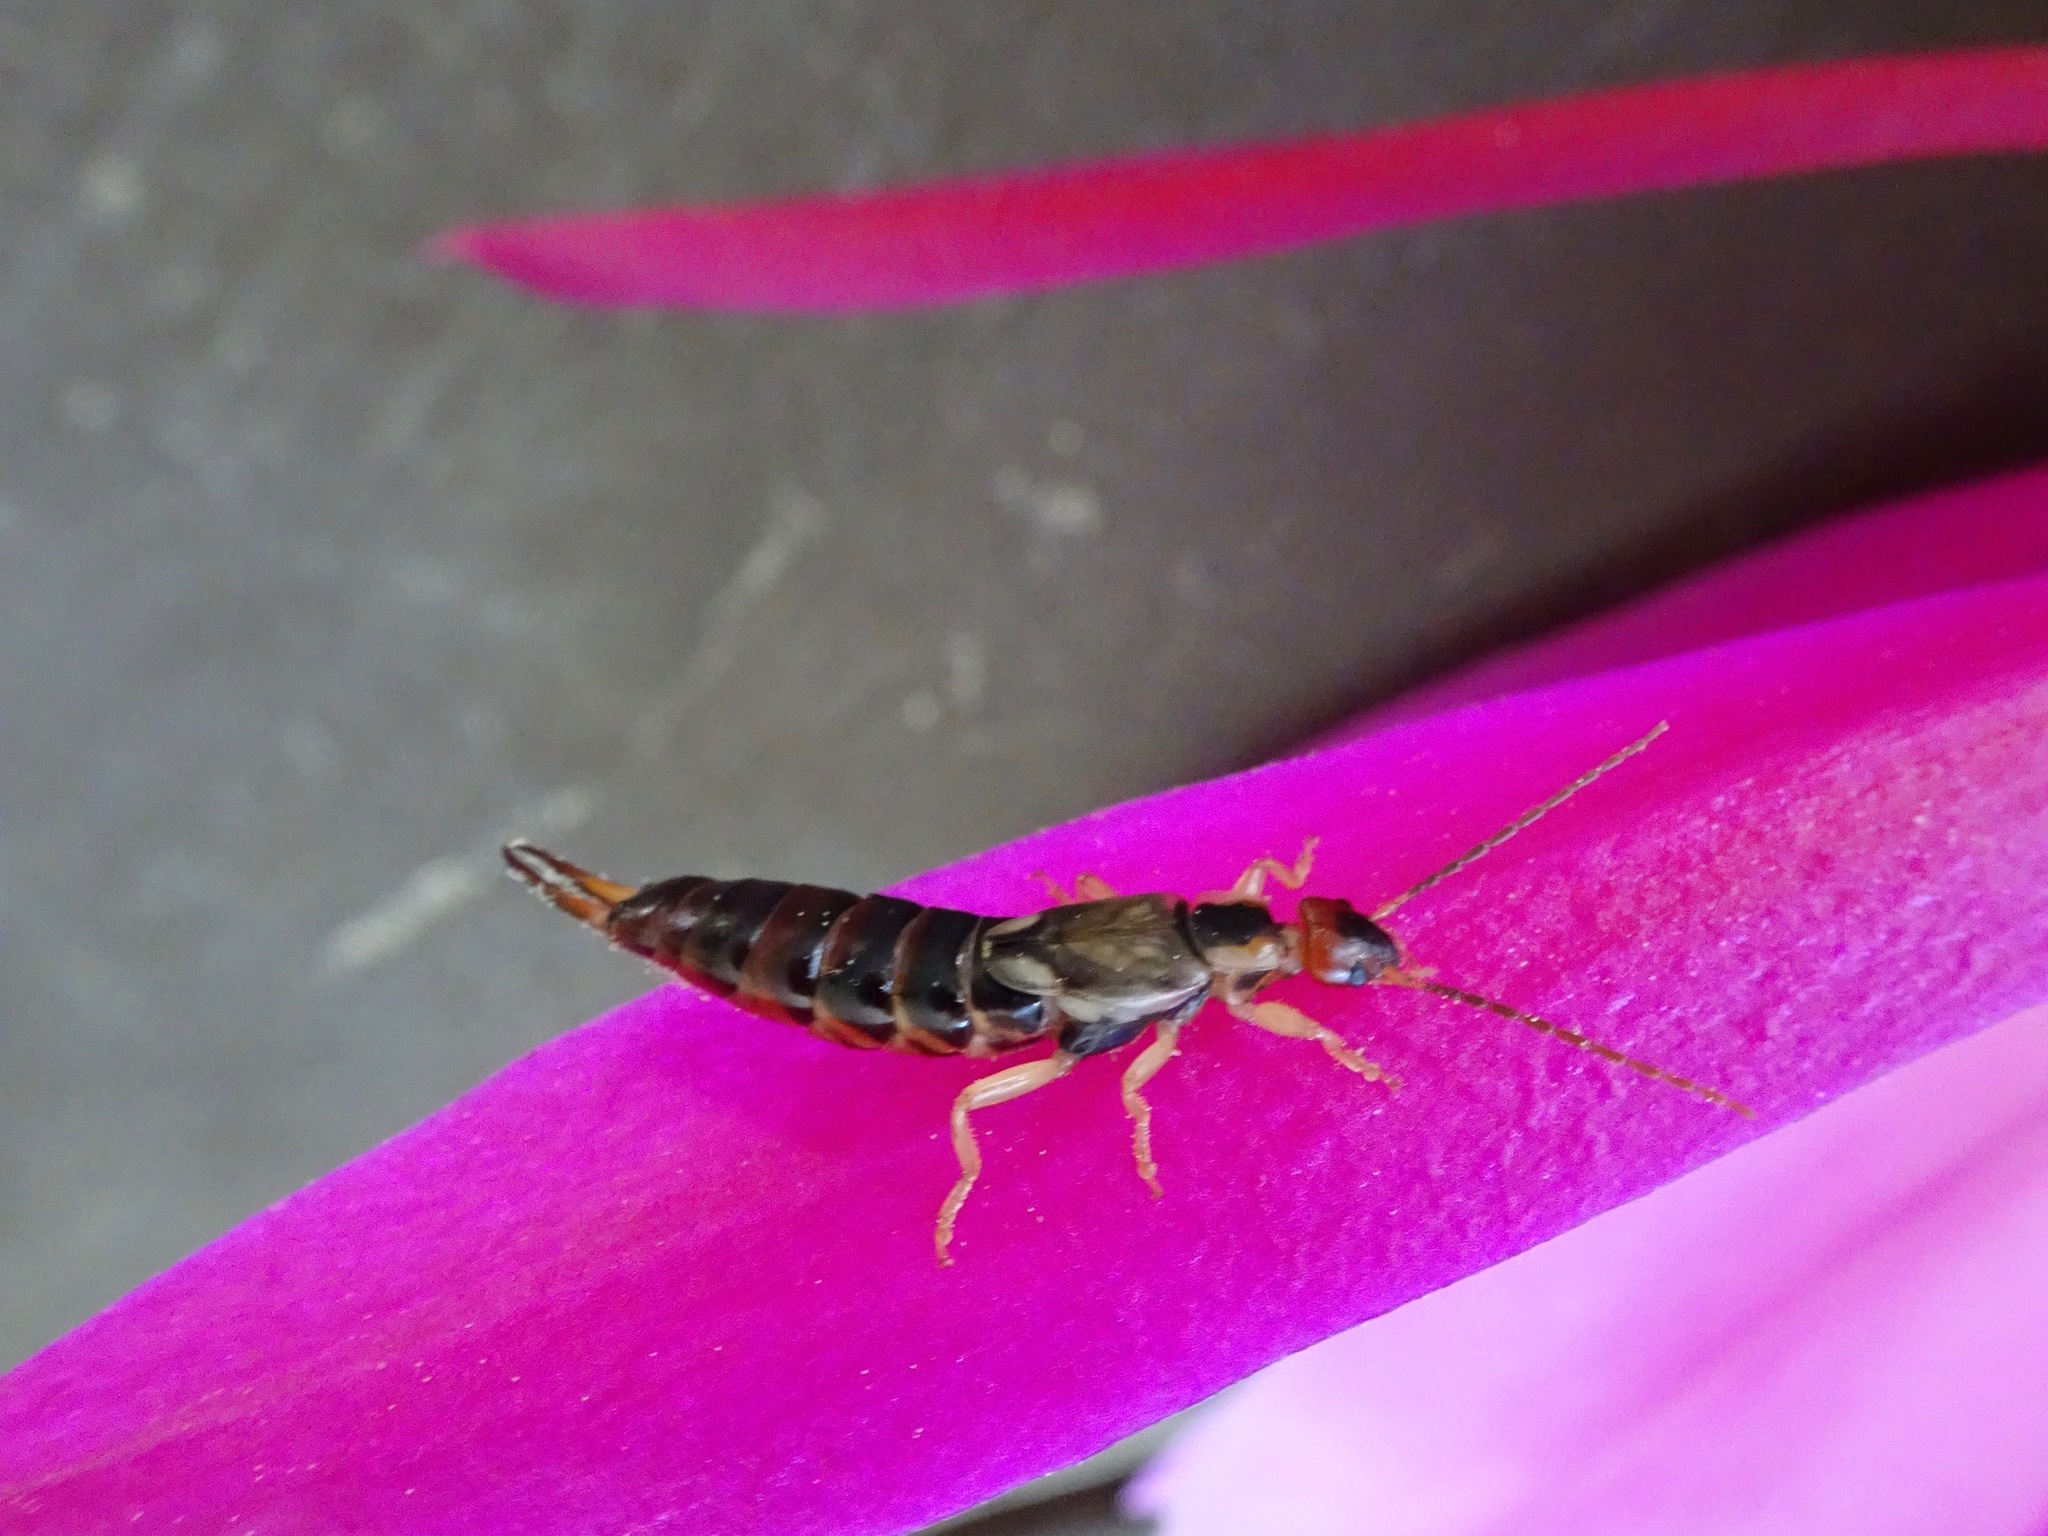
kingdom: Animalia
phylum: Arthropoda
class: Insecta
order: Dermaptera
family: Forficulidae
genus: Forficula
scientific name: Forficula
